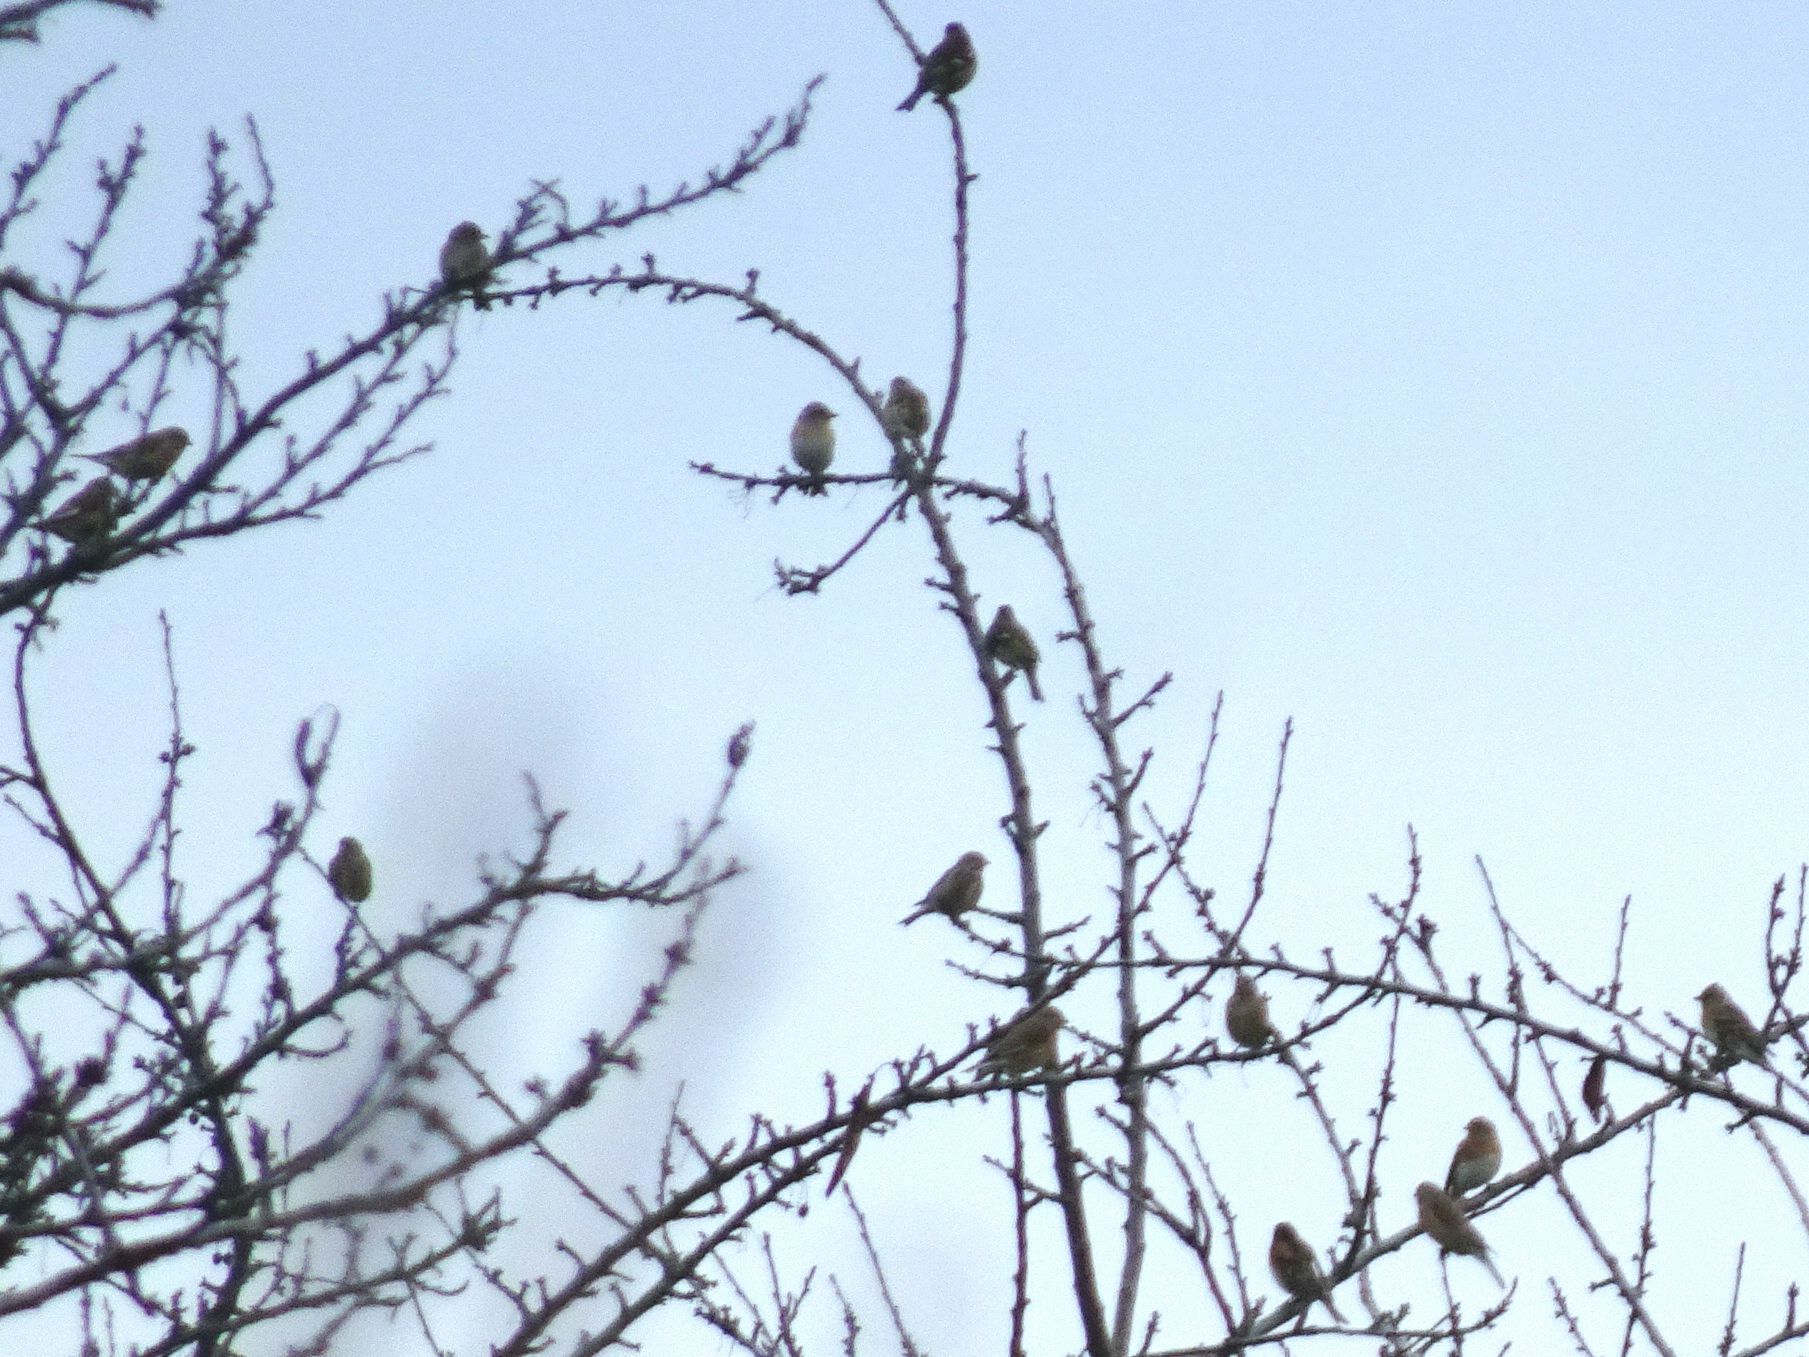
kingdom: Animalia
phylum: Chordata
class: Aves
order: Passeriformes
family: Fringillidae
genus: Fringilla
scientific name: Fringilla montifringilla
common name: Brambling
